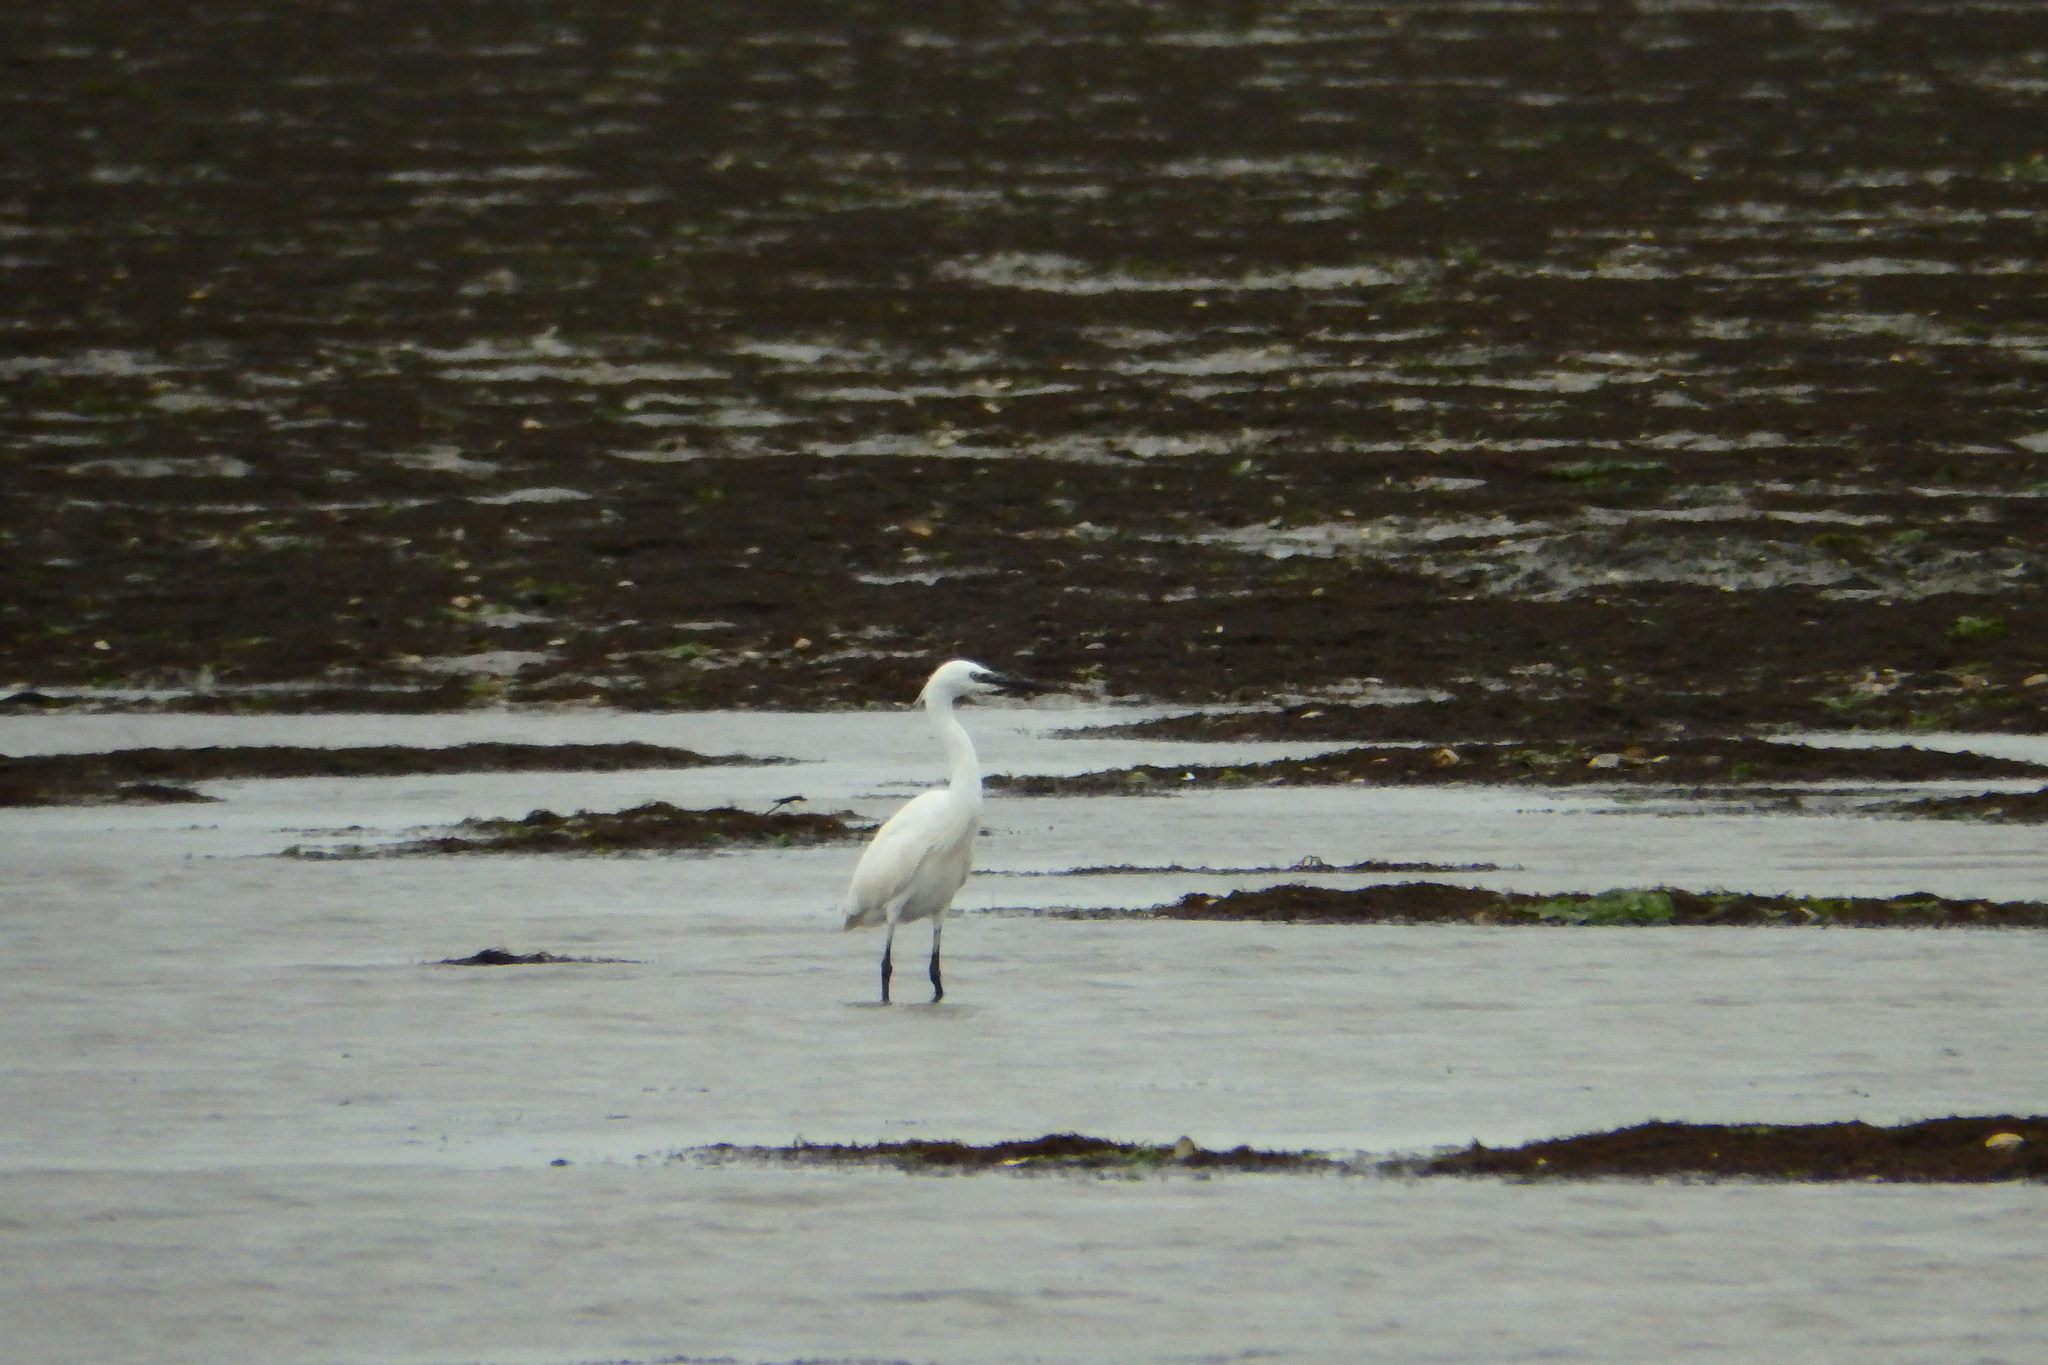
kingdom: Animalia
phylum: Chordata
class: Aves
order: Pelecaniformes
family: Ardeidae
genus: Egretta
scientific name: Egretta garzetta
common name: Little egret
